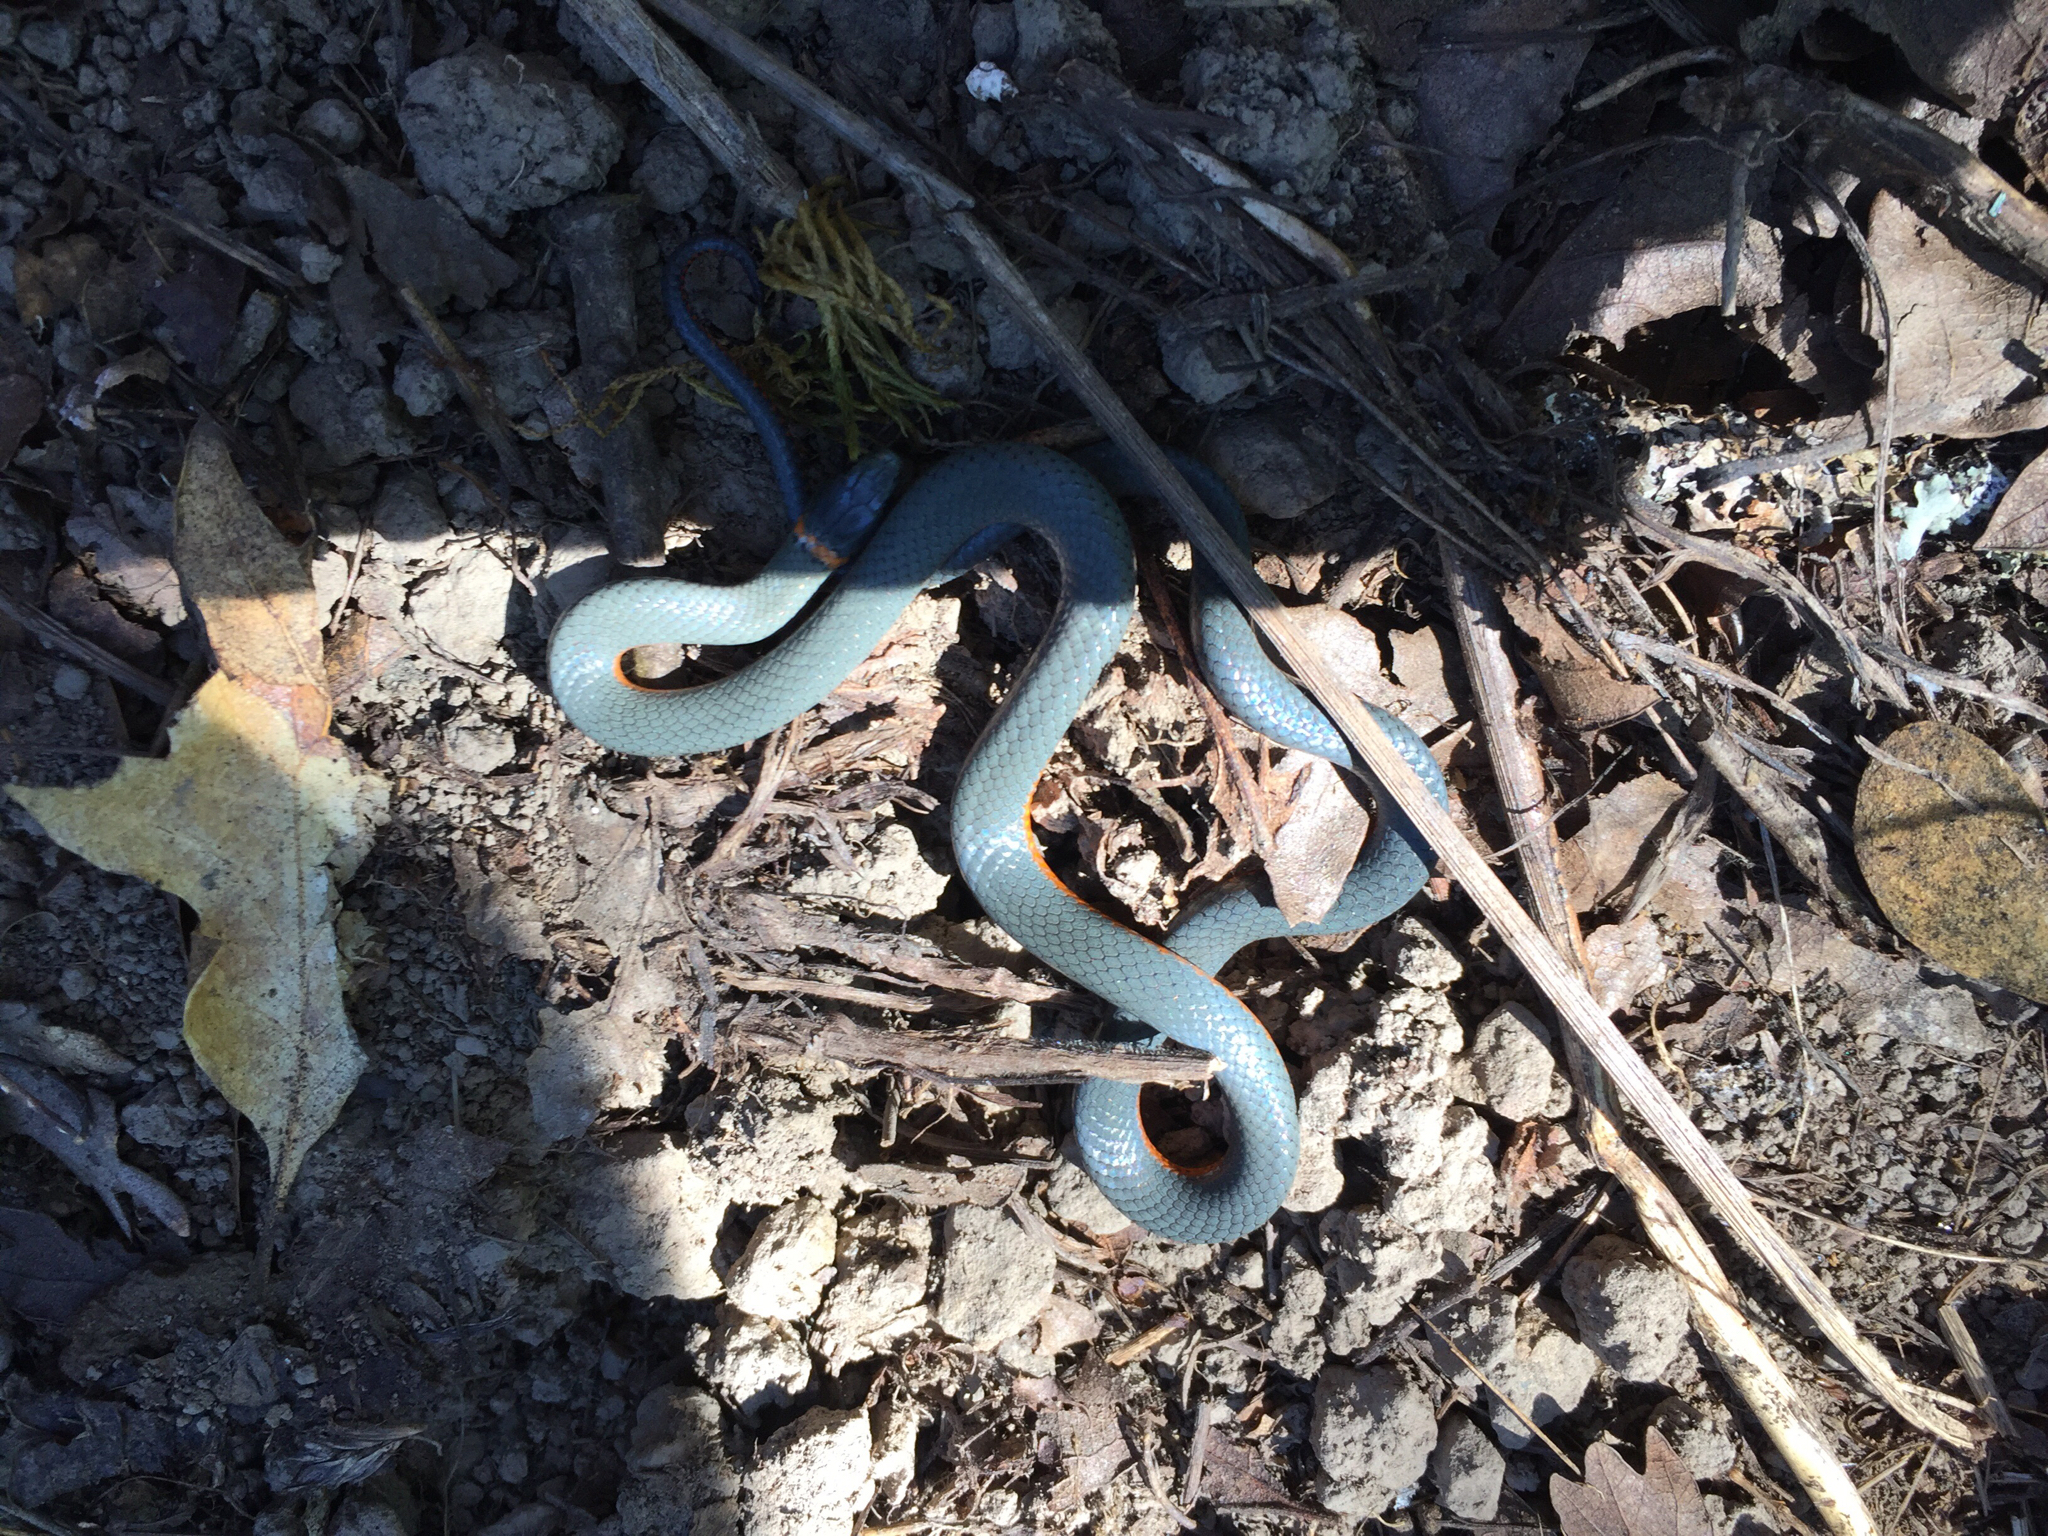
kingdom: Animalia
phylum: Chordata
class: Squamata
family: Colubridae
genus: Diadophis
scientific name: Diadophis punctatus
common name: Ringneck snake
